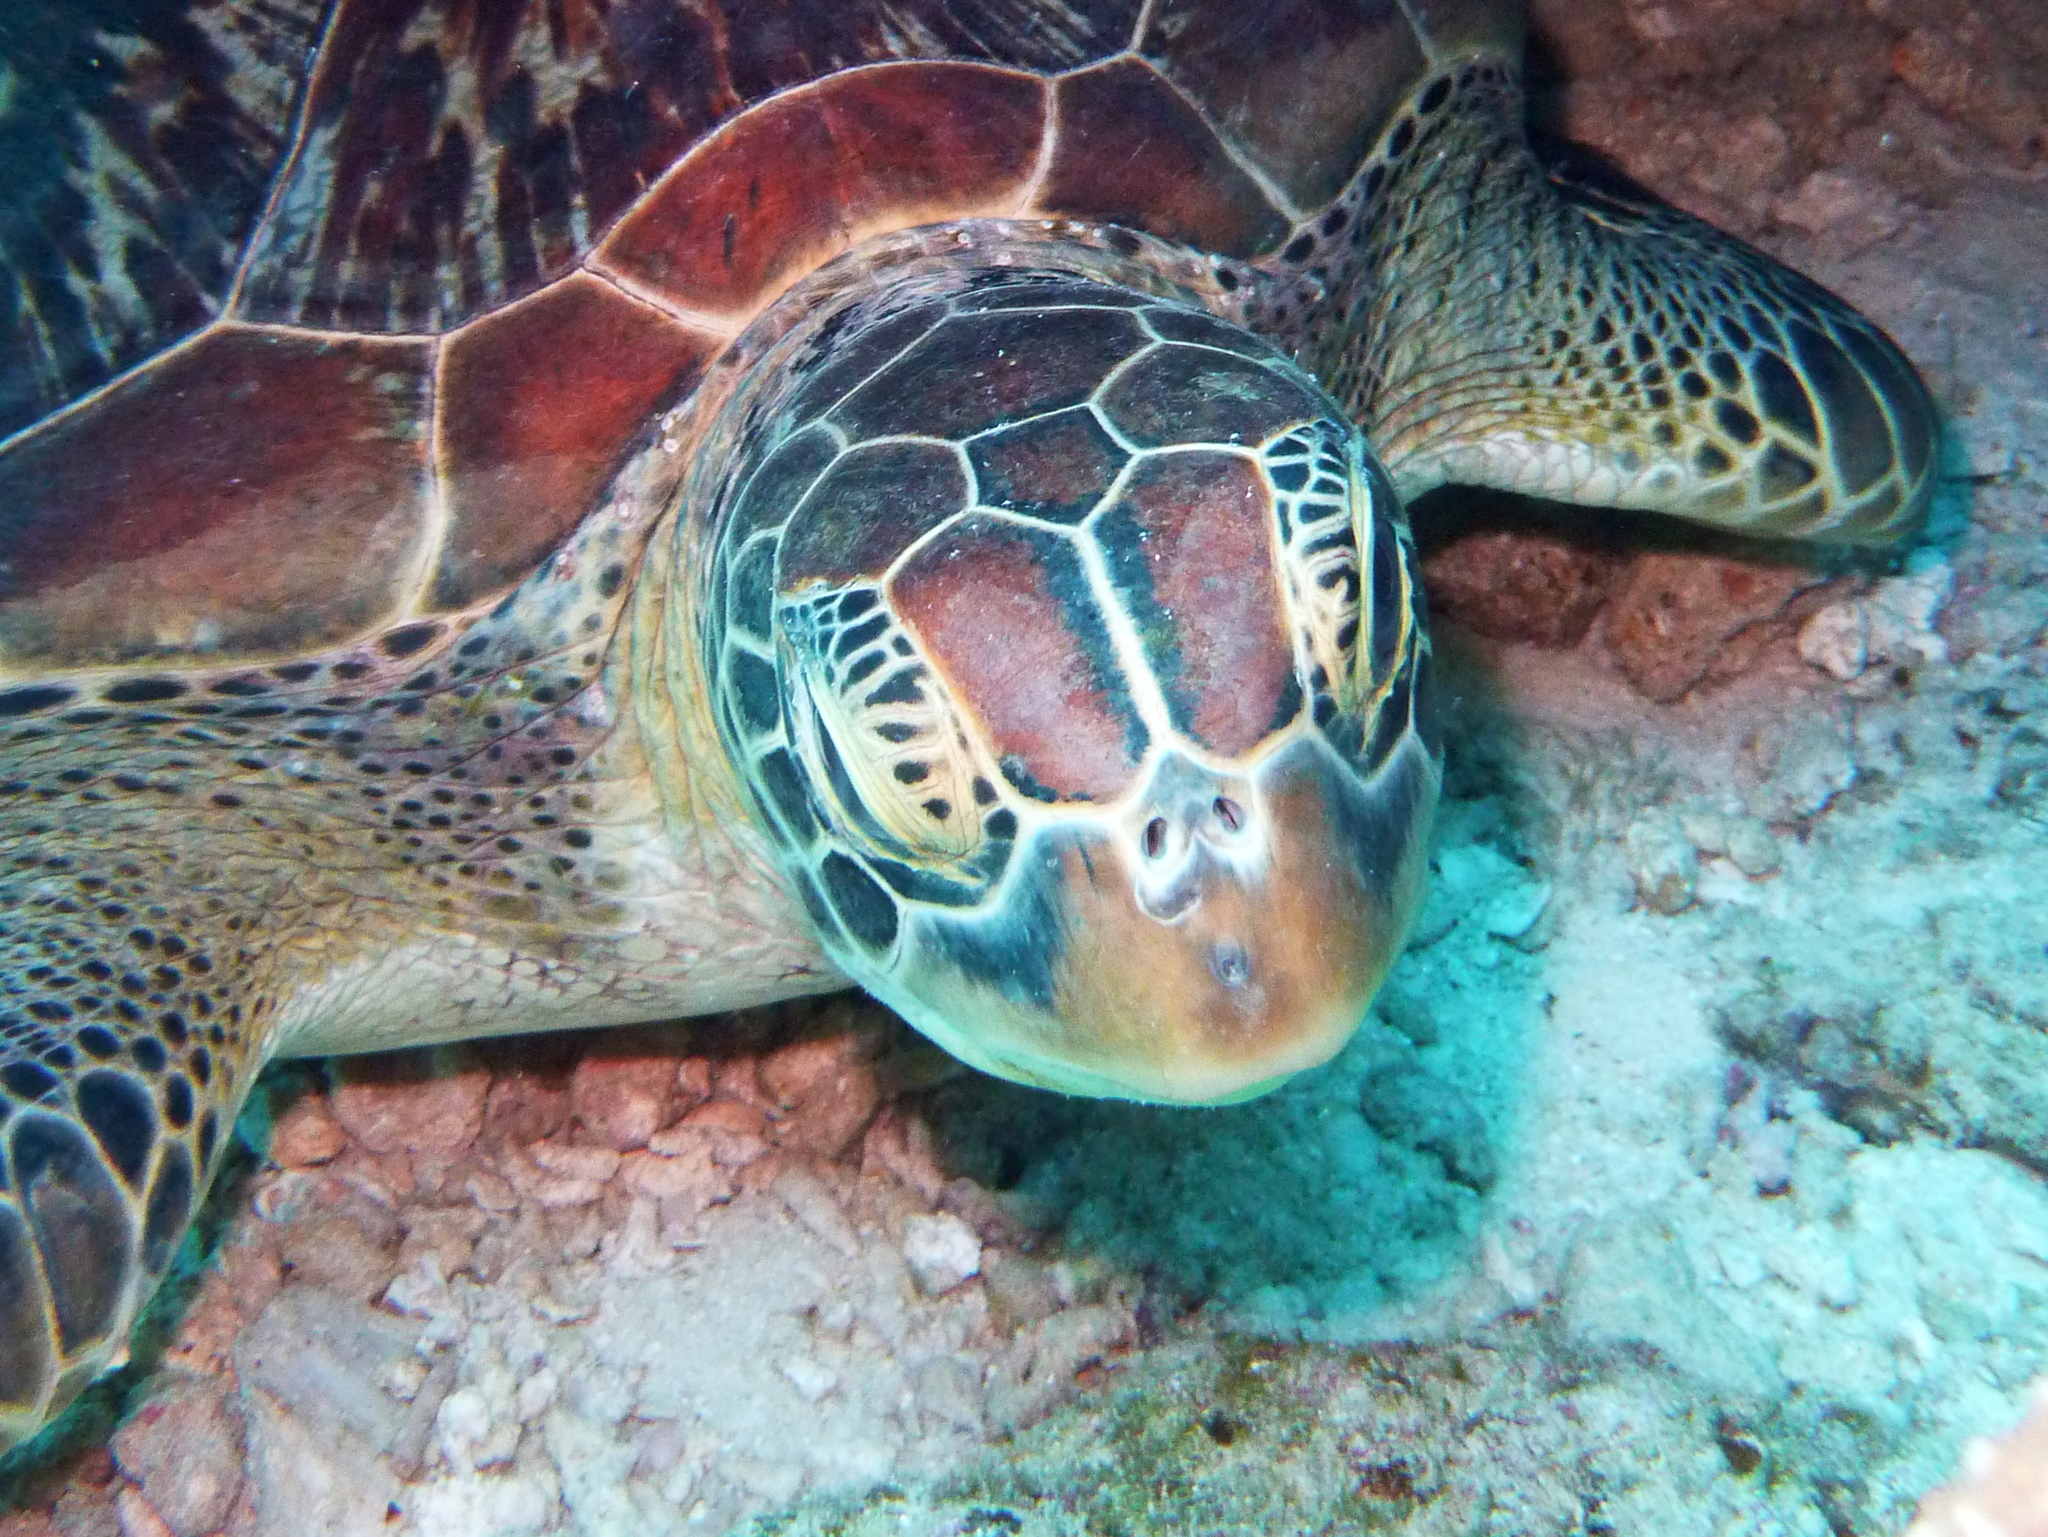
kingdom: Animalia
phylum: Chordata
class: Testudines
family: Cheloniidae
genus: Chelonia
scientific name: Chelonia mydas
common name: Green turtle
